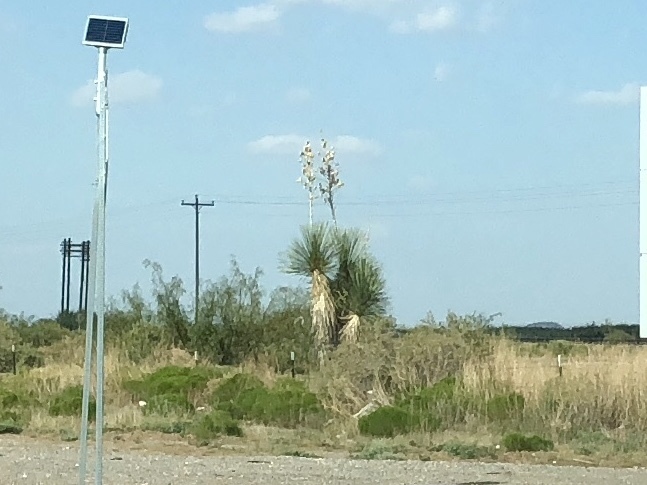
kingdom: Plantae
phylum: Tracheophyta
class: Liliopsida
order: Asparagales
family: Asparagaceae
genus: Yucca
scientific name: Yucca elata
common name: Palmella
